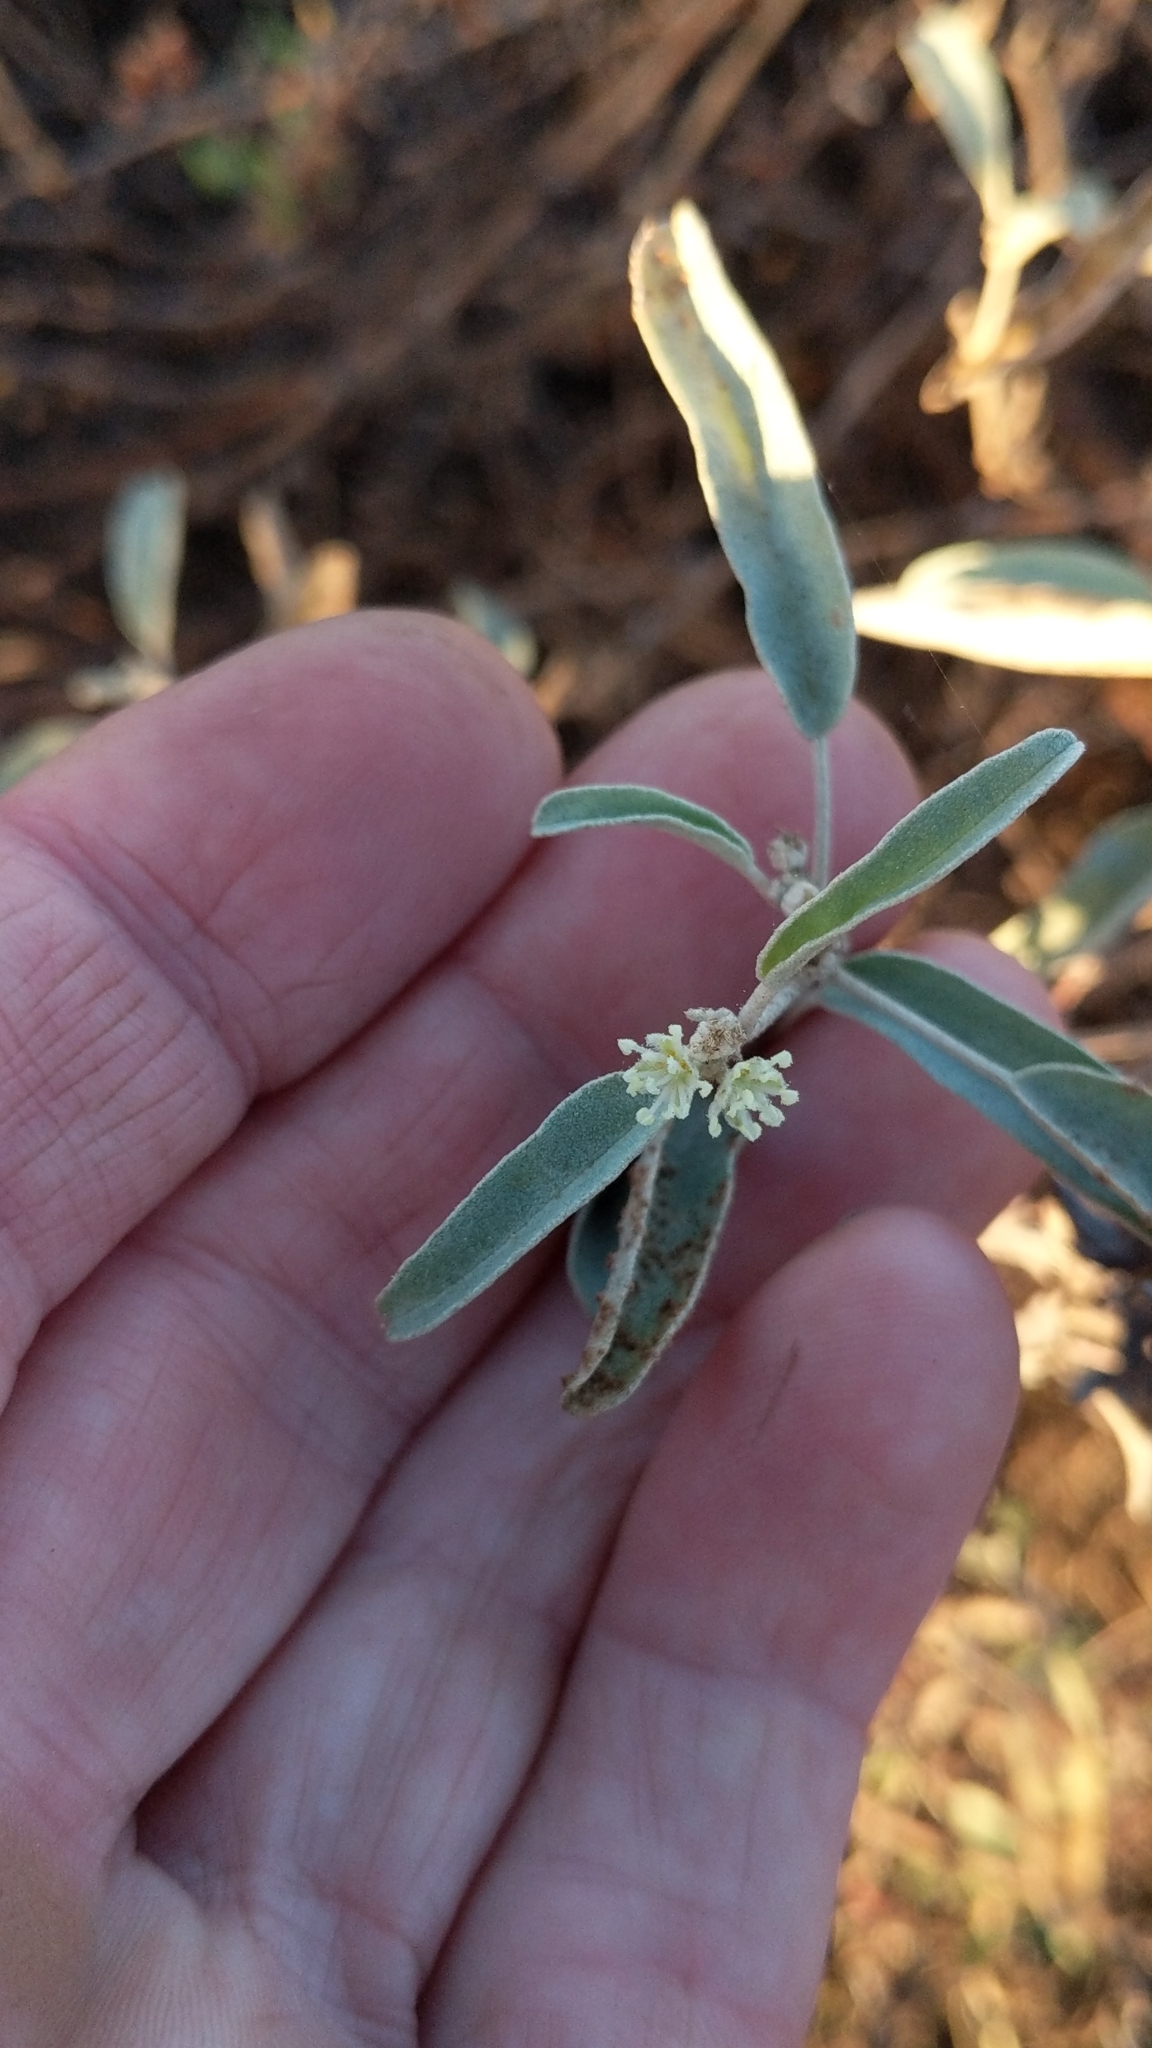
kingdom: Plantae
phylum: Tracheophyta
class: Magnoliopsida
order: Malpighiales
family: Euphorbiaceae
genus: Croton
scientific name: Croton californicus
